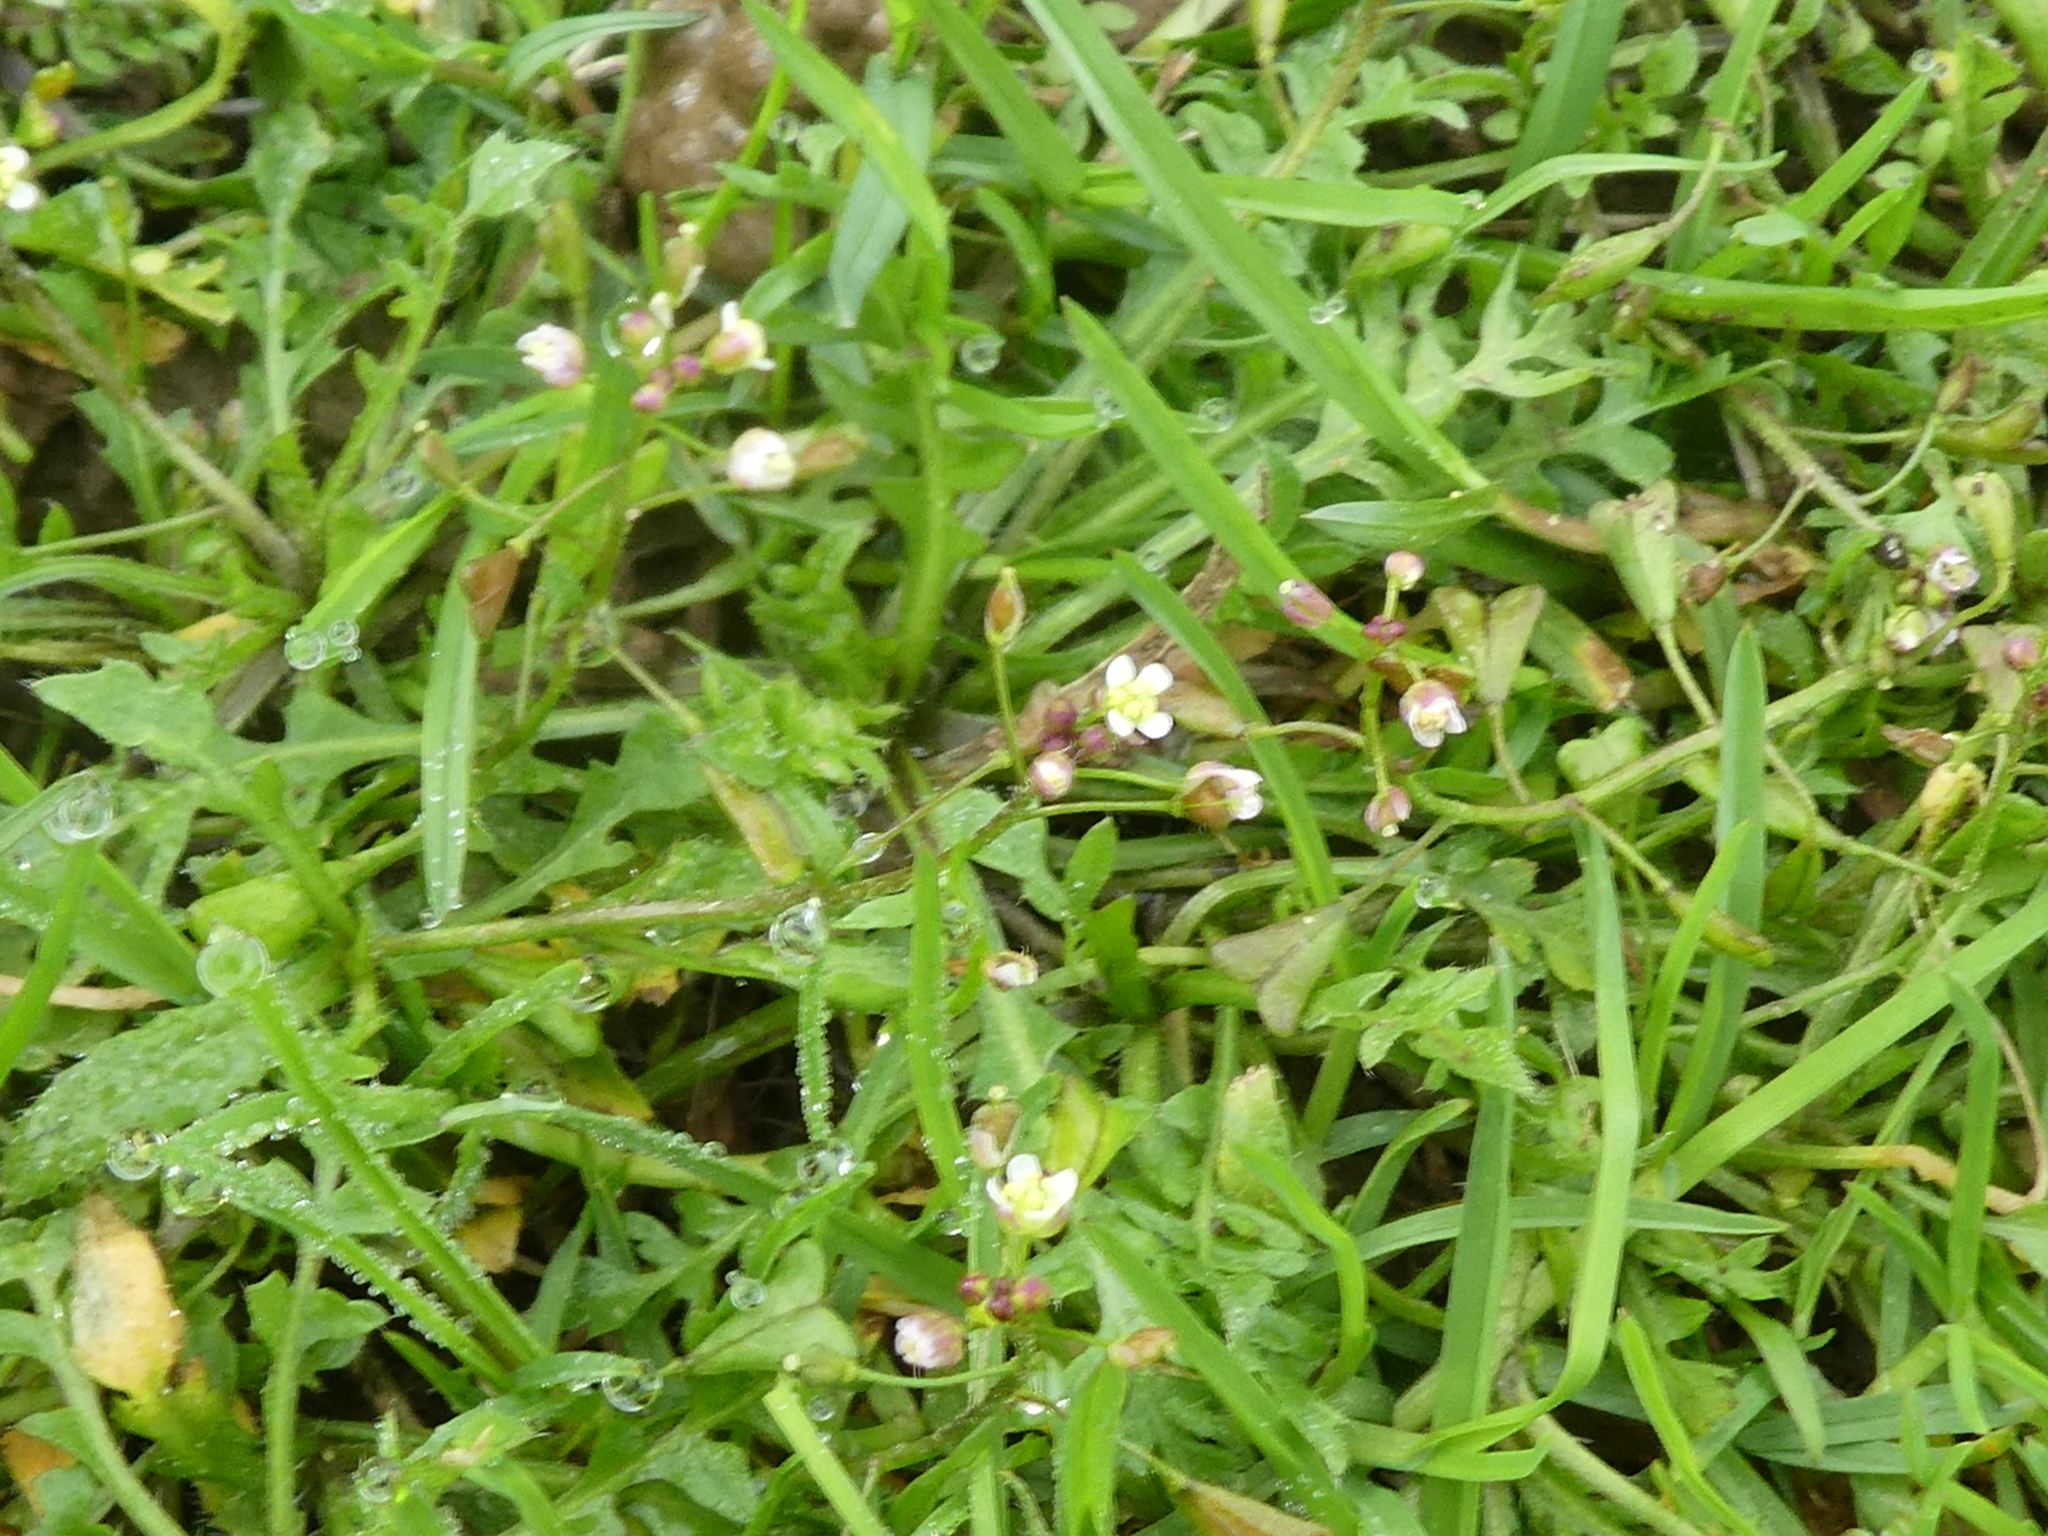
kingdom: Plantae
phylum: Tracheophyta
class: Magnoliopsida
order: Brassicales
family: Brassicaceae
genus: Capsella
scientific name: Capsella bursa-pastoris
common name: Shepherd's purse
